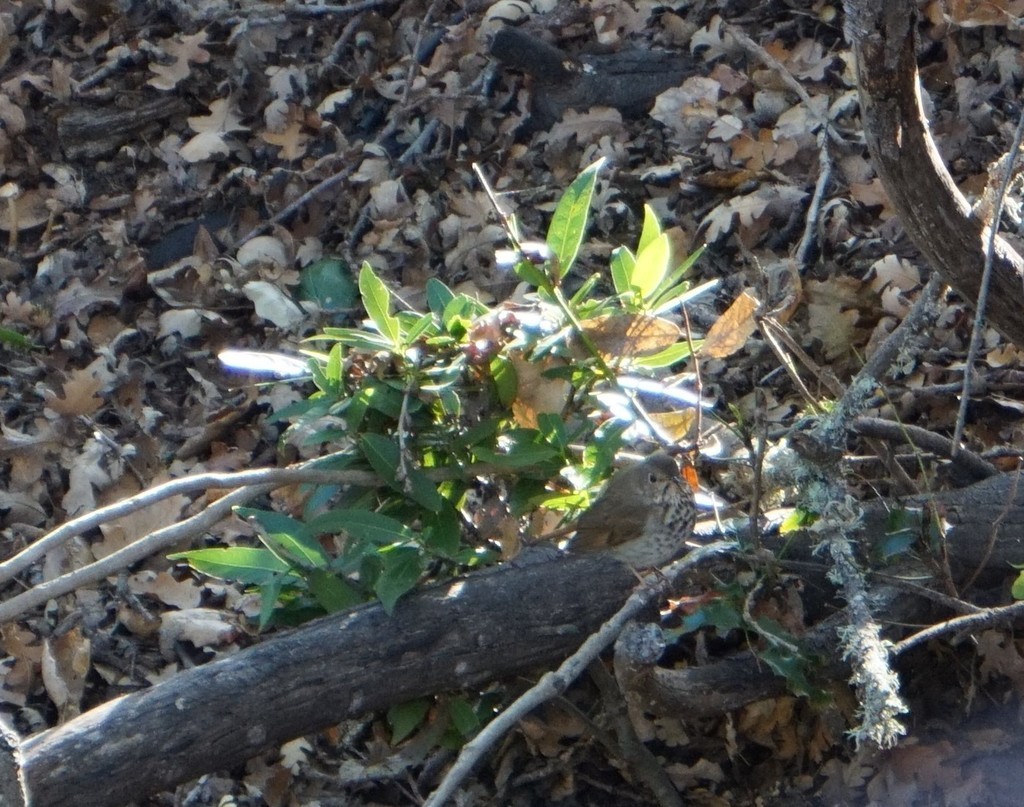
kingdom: Animalia
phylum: Chordata
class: Aves
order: Passeriformes
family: Turdidae
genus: Catharus
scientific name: Catharus guttatus
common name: Hermit thrush
